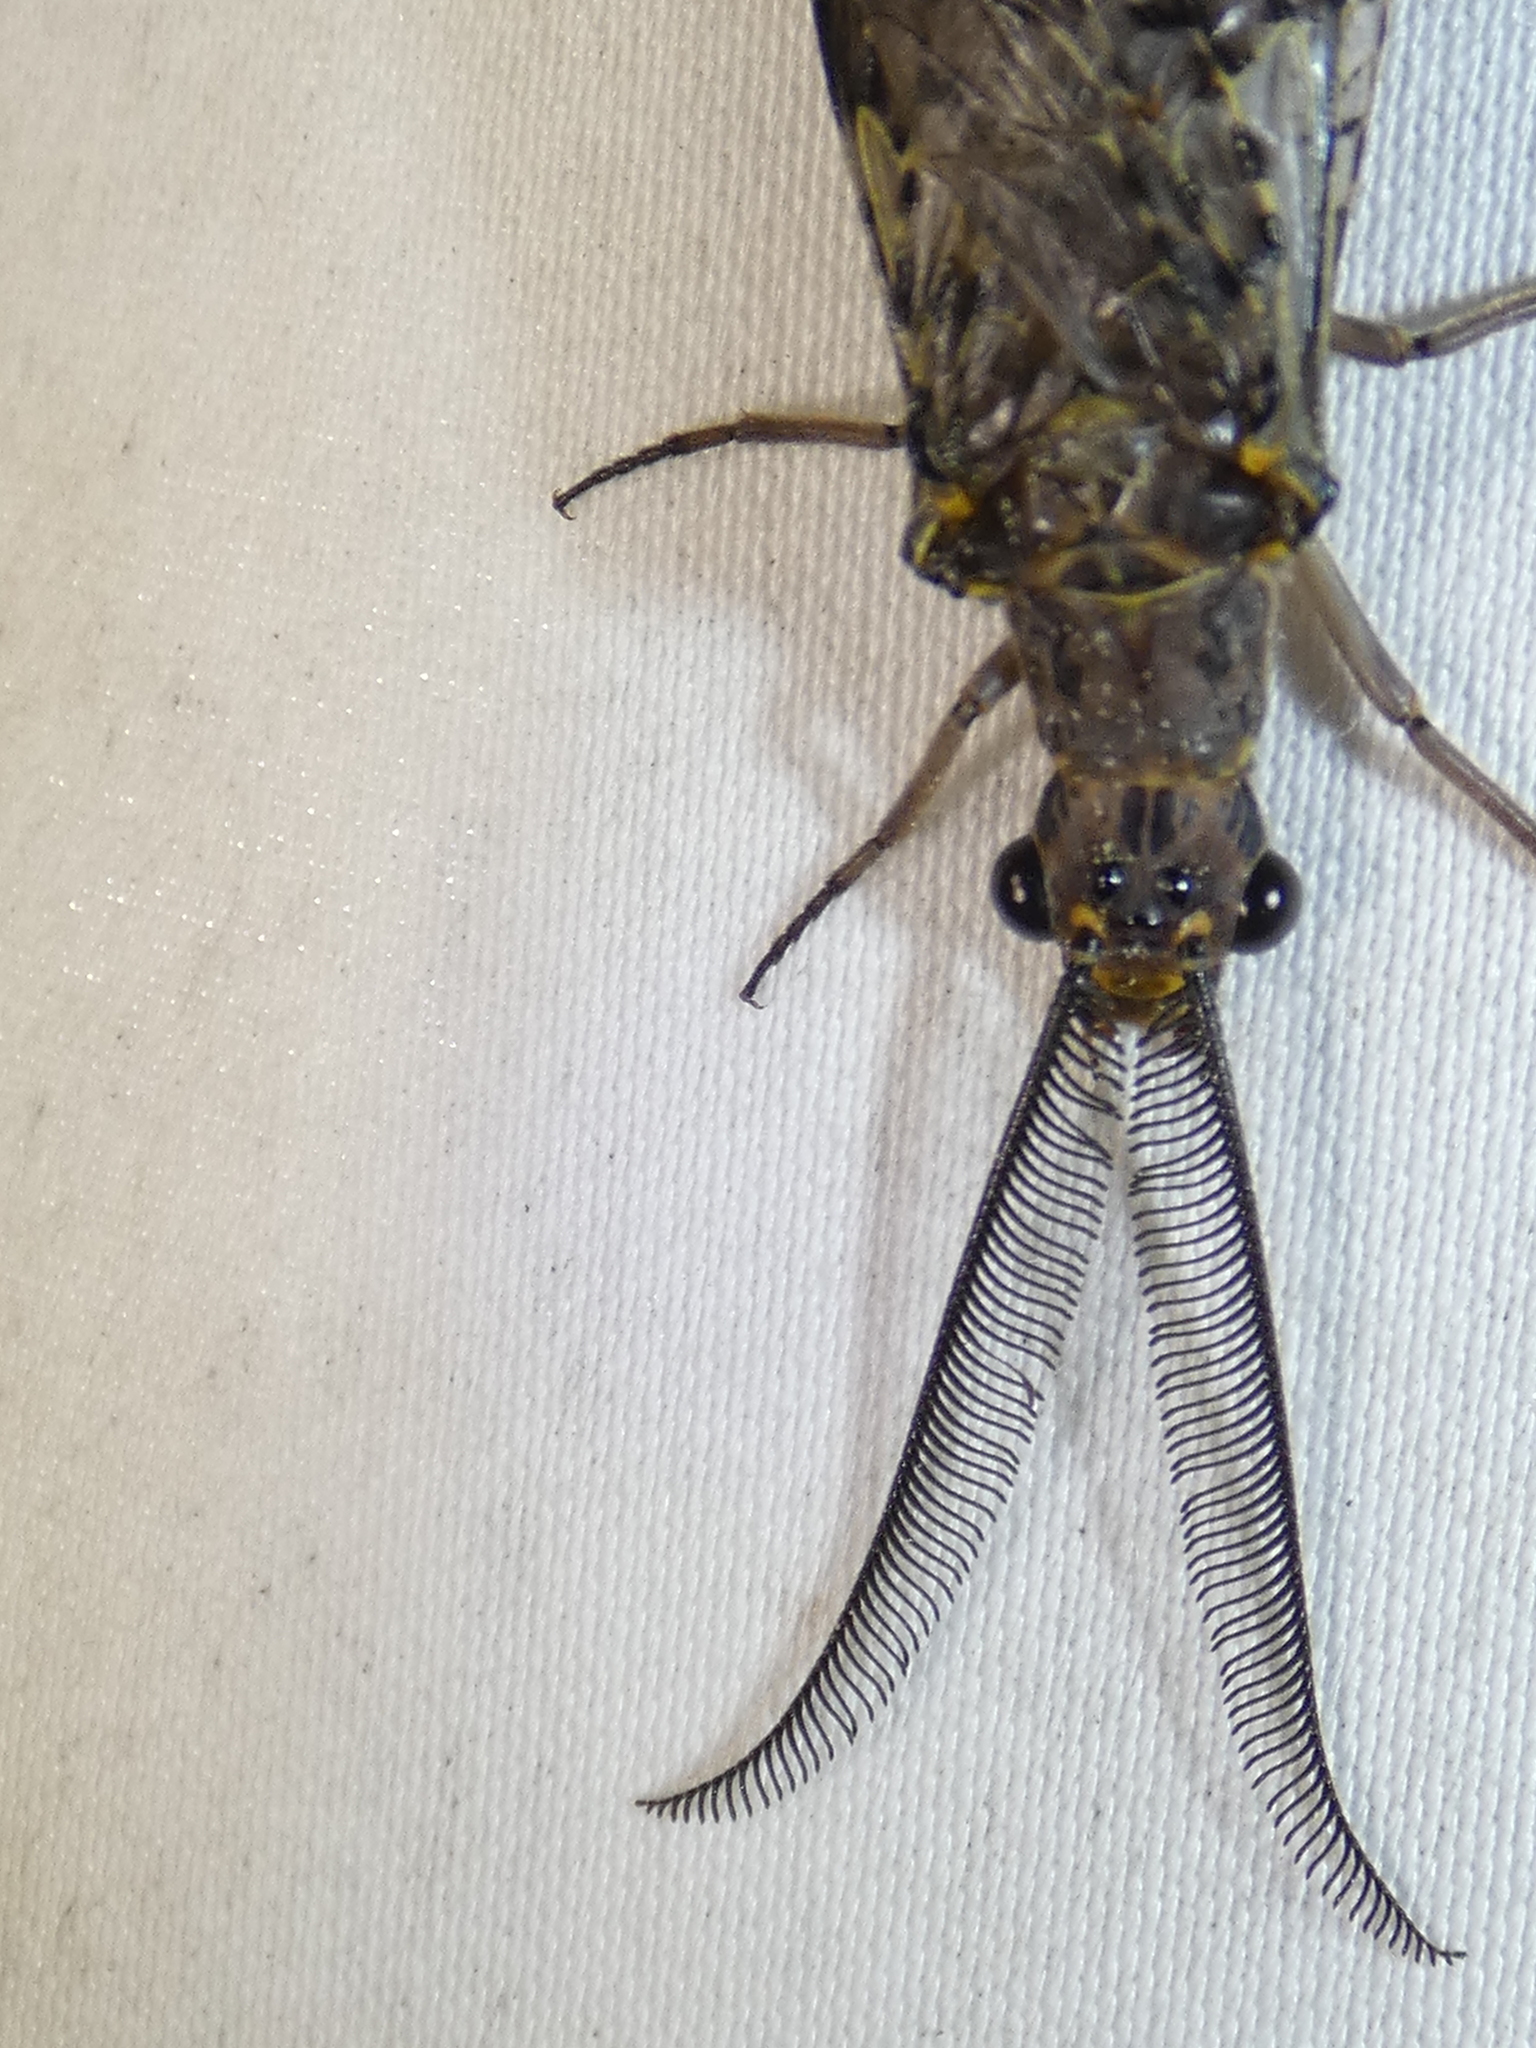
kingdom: Animalia
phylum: Arthropoda
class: Insecta
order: Megaloptera
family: Corydalidae
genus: Chauliodes
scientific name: Chauliodes rastricornis
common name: Spring fishfly
